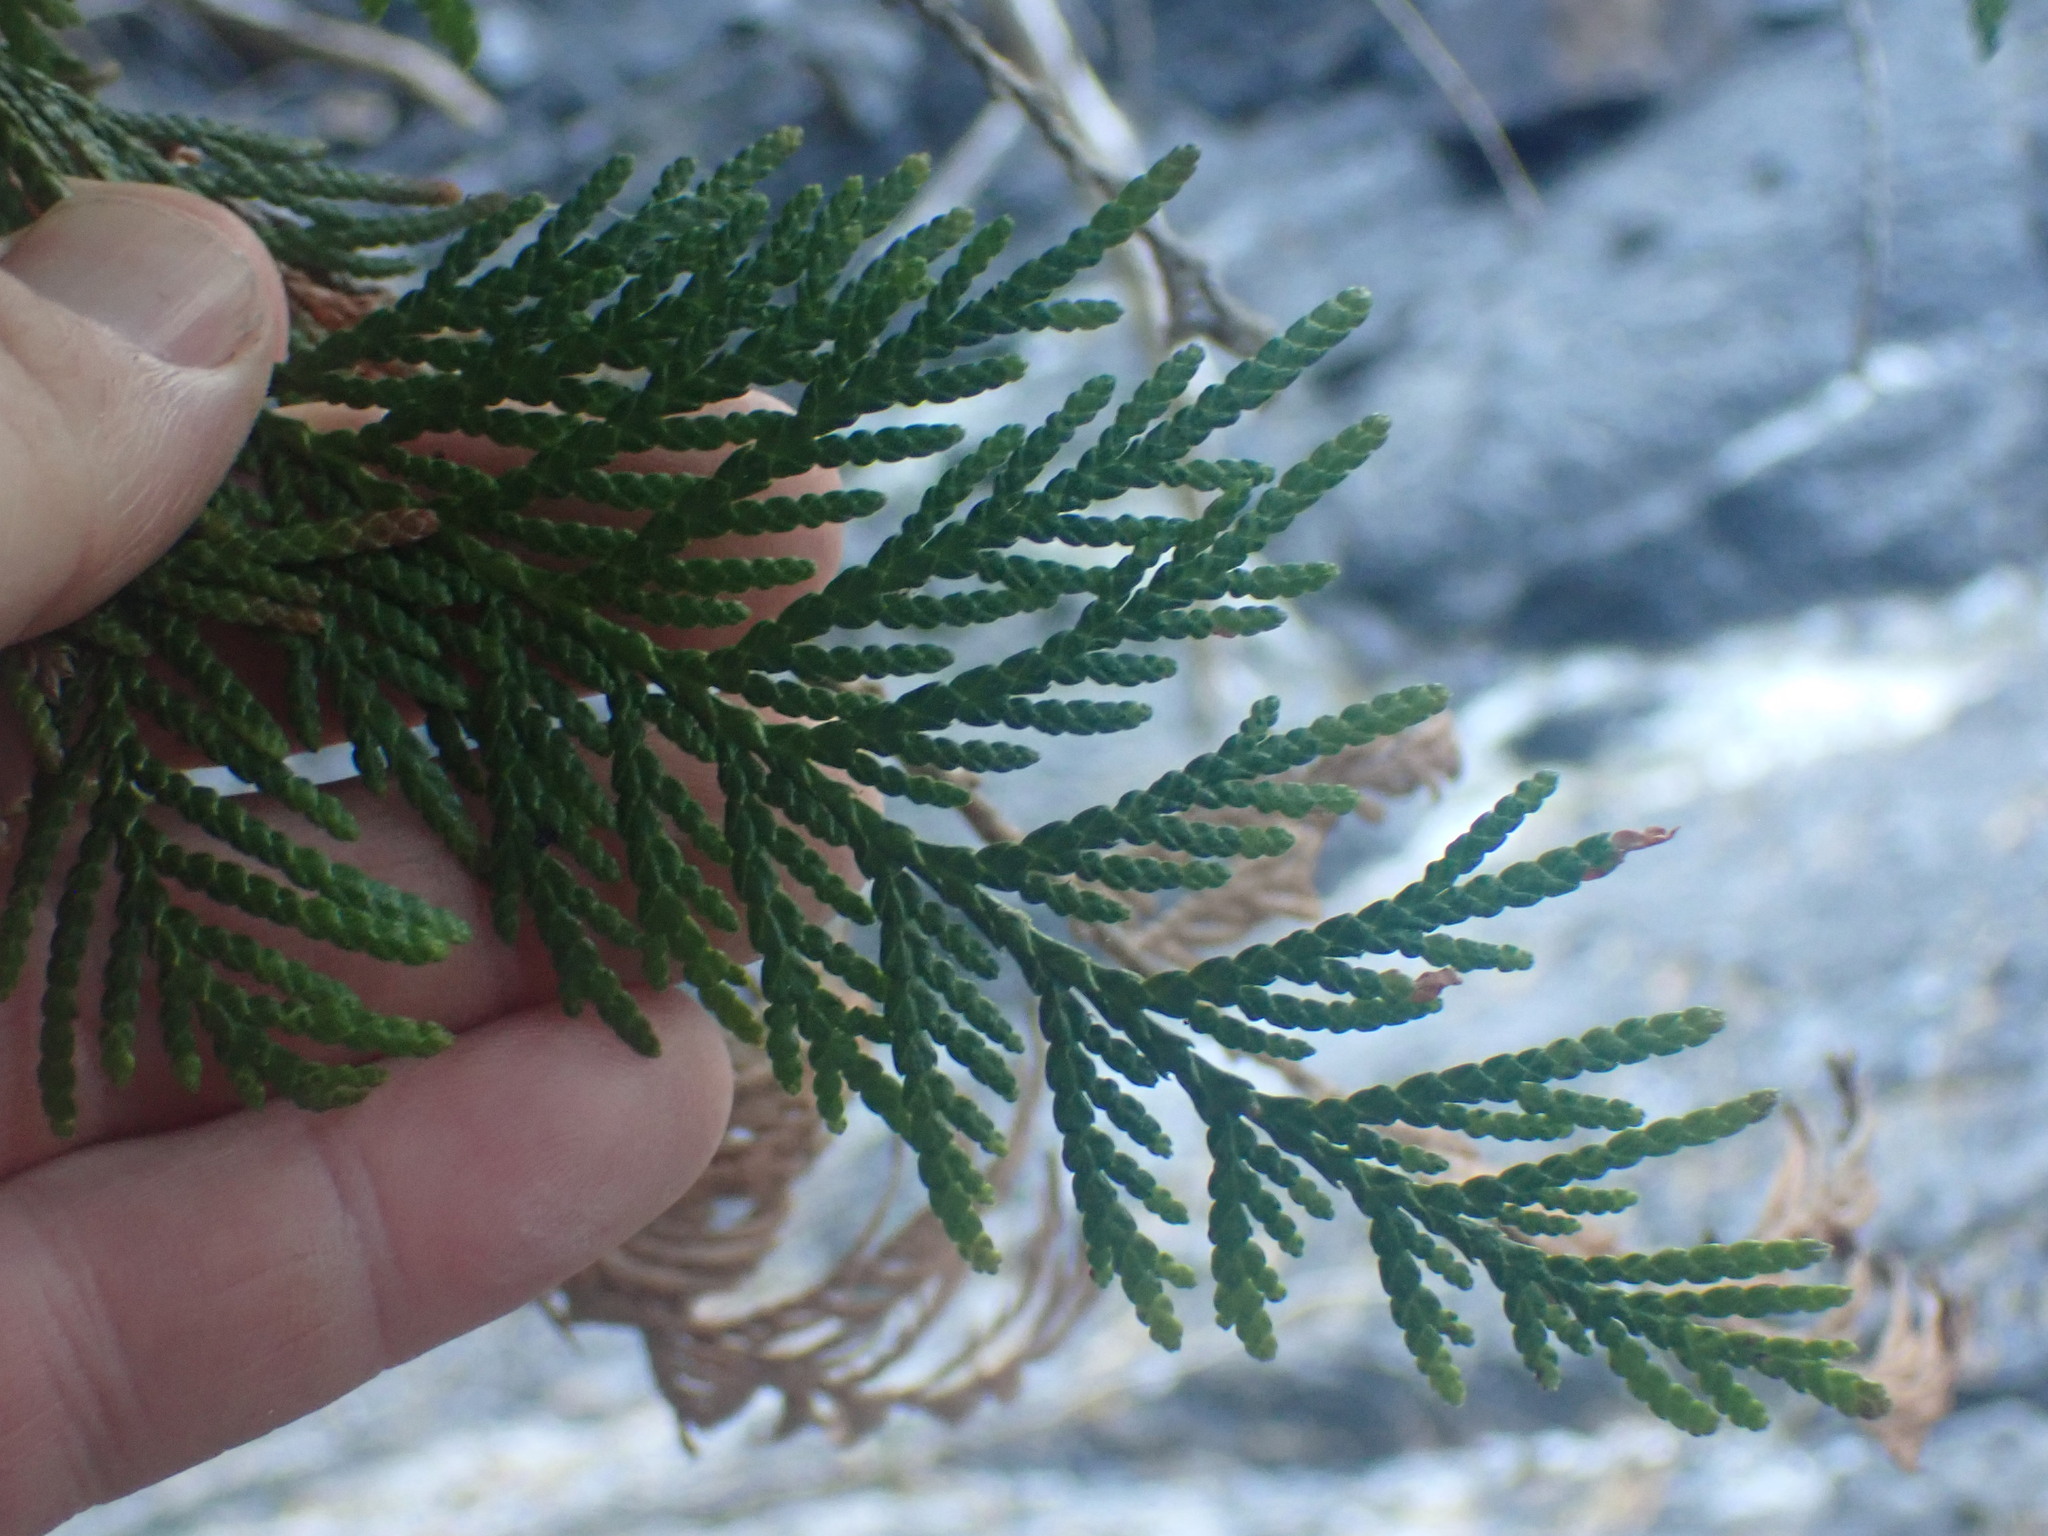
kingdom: Plantae
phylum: Tracheophyta
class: Pinopsida
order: Pinales
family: Cupressaceae
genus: Thuja
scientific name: Thuja plicata
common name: Western red-cedar
